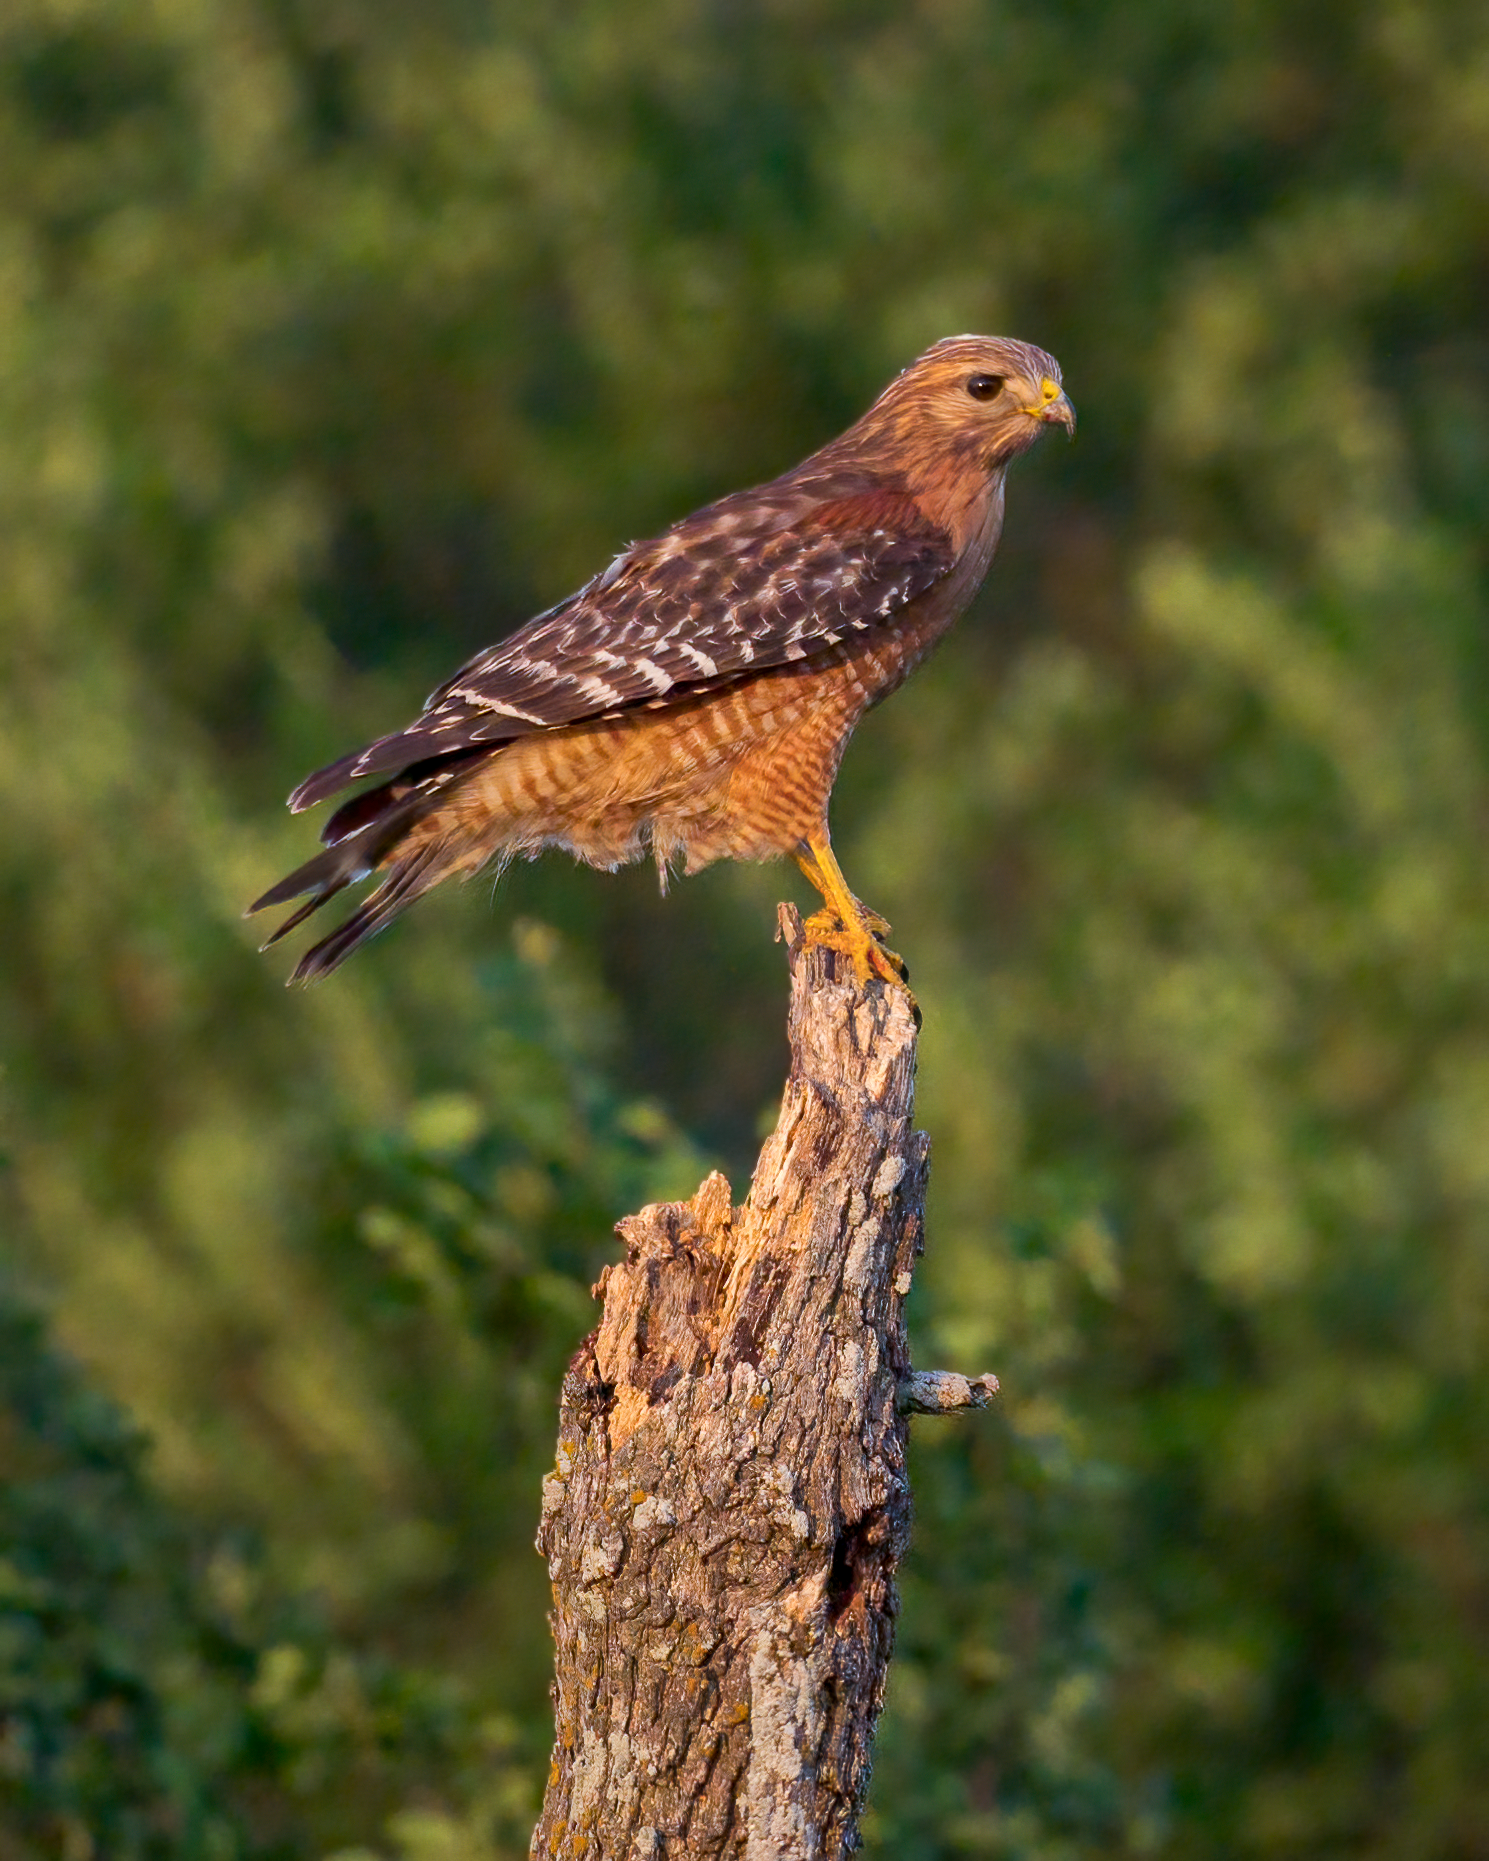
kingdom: Animalia
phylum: Chordata
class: Aves
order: Accipitriformes
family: Accipitridae
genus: Buteo
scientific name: Buteo lineatus
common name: Red-shouldered hawk
